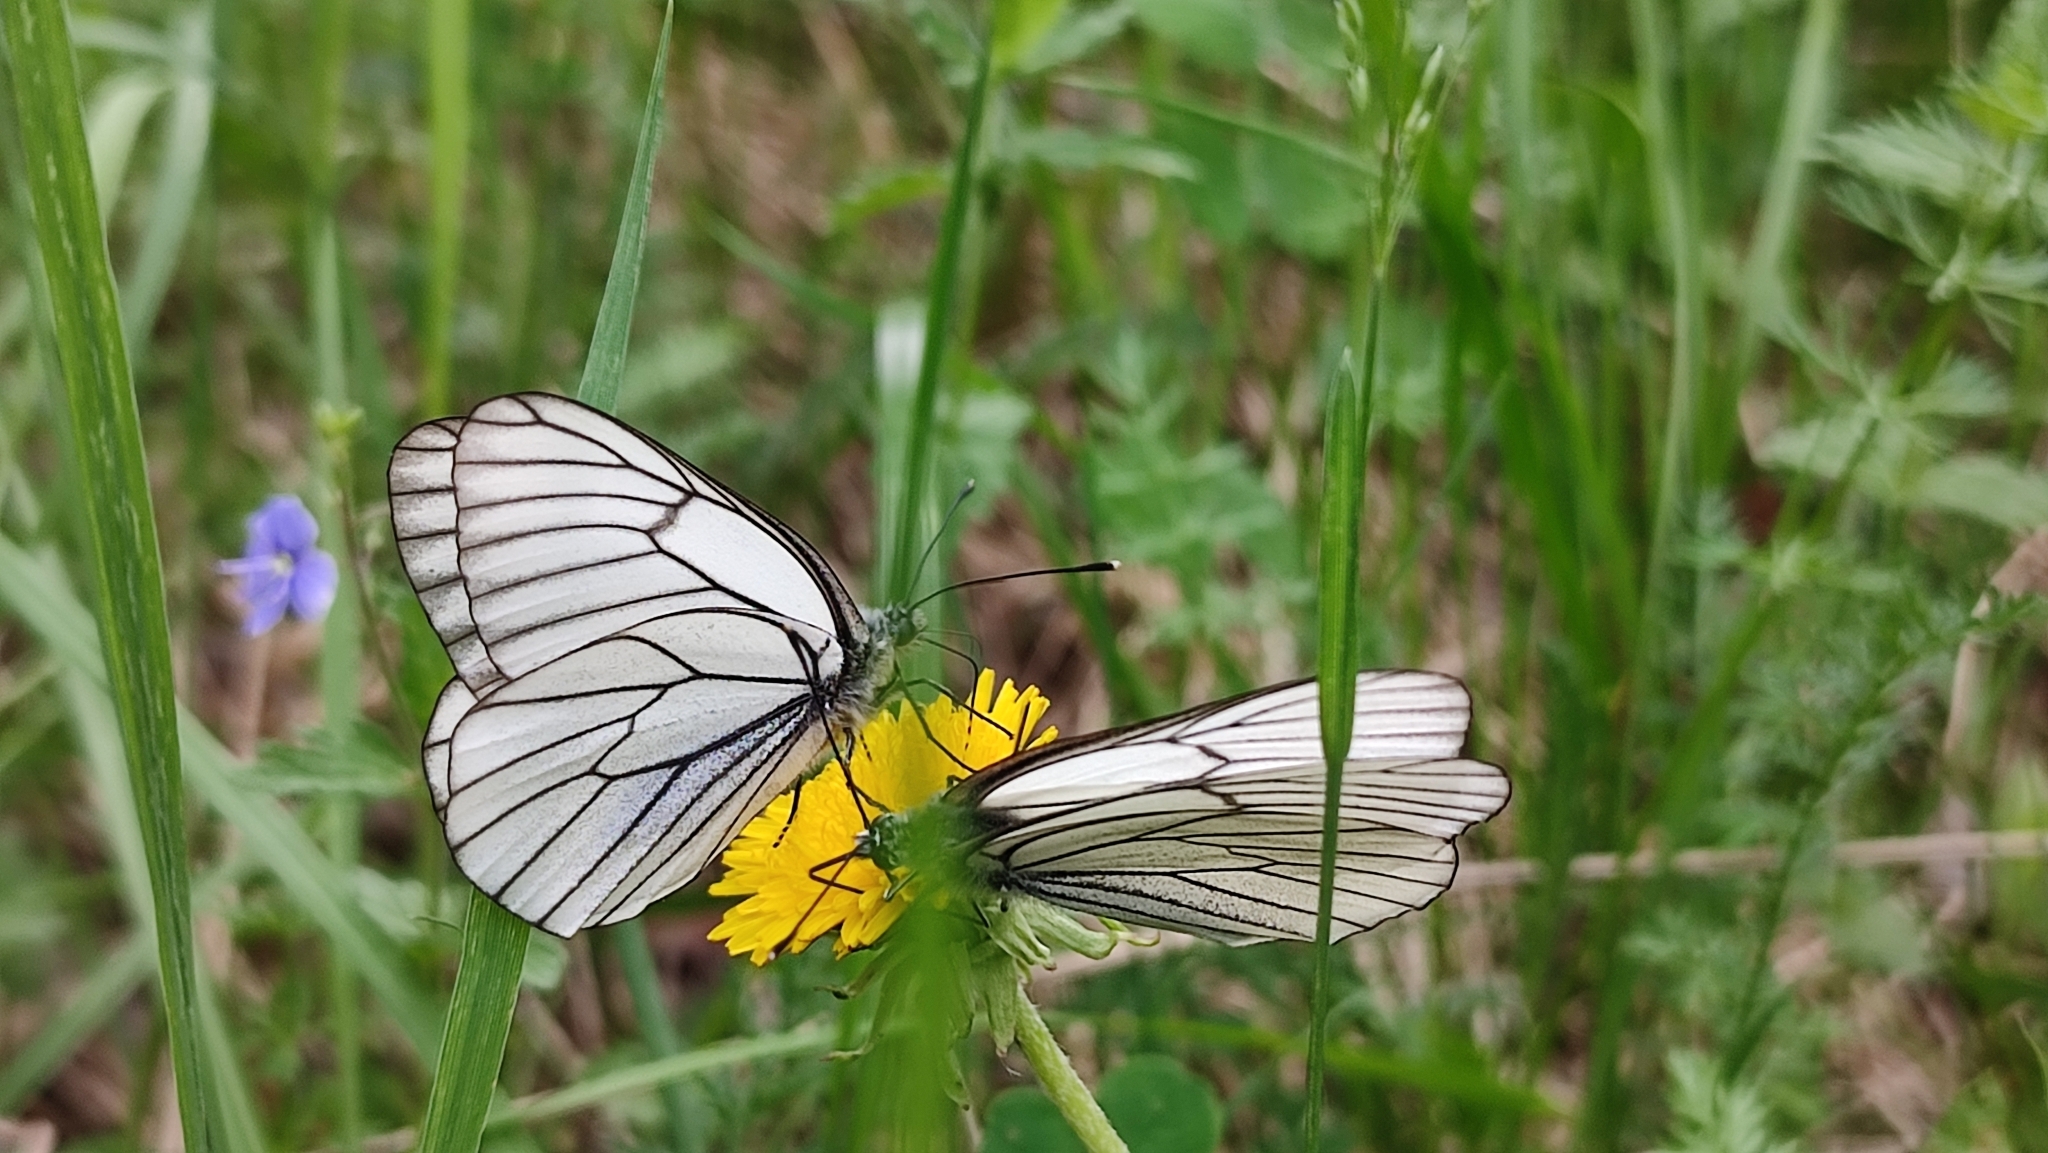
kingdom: Animalia
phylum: Arthropoda
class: Insecta
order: Lepidoptera
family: Pieridae
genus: Aporia
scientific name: Aporia crataegi
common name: Black-veined white
